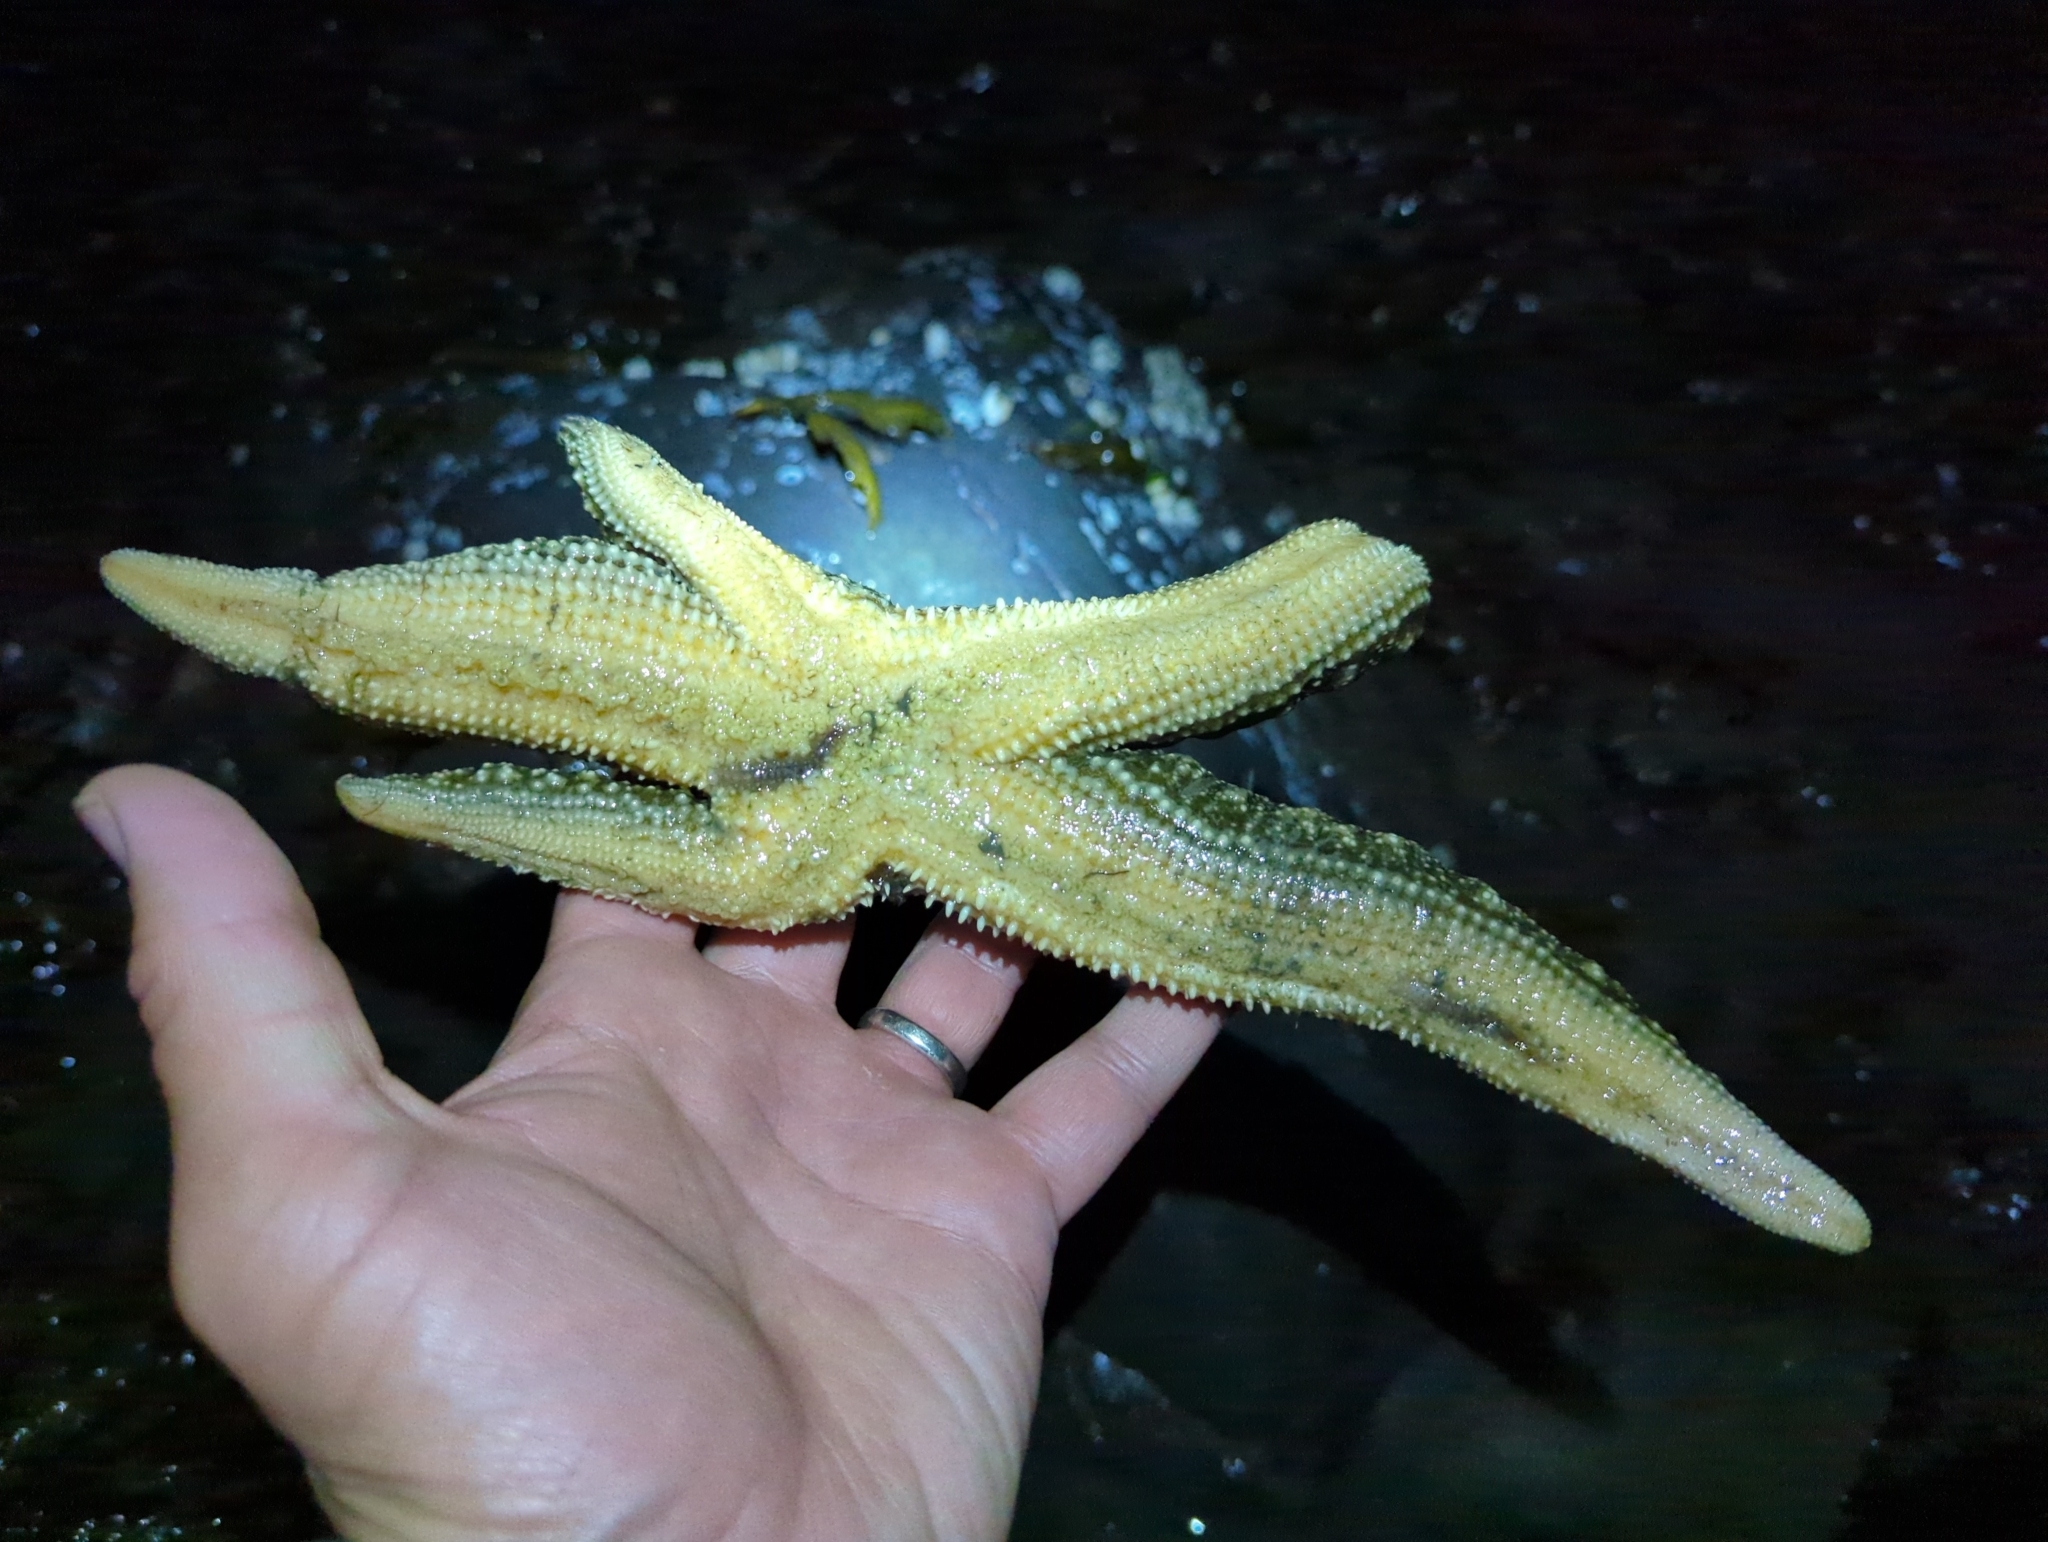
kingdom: Animalia
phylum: Echinodermata
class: Asteroidea
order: Forcipulatida
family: Asteriidae
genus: Evasterias
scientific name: Evasterias troschelii
